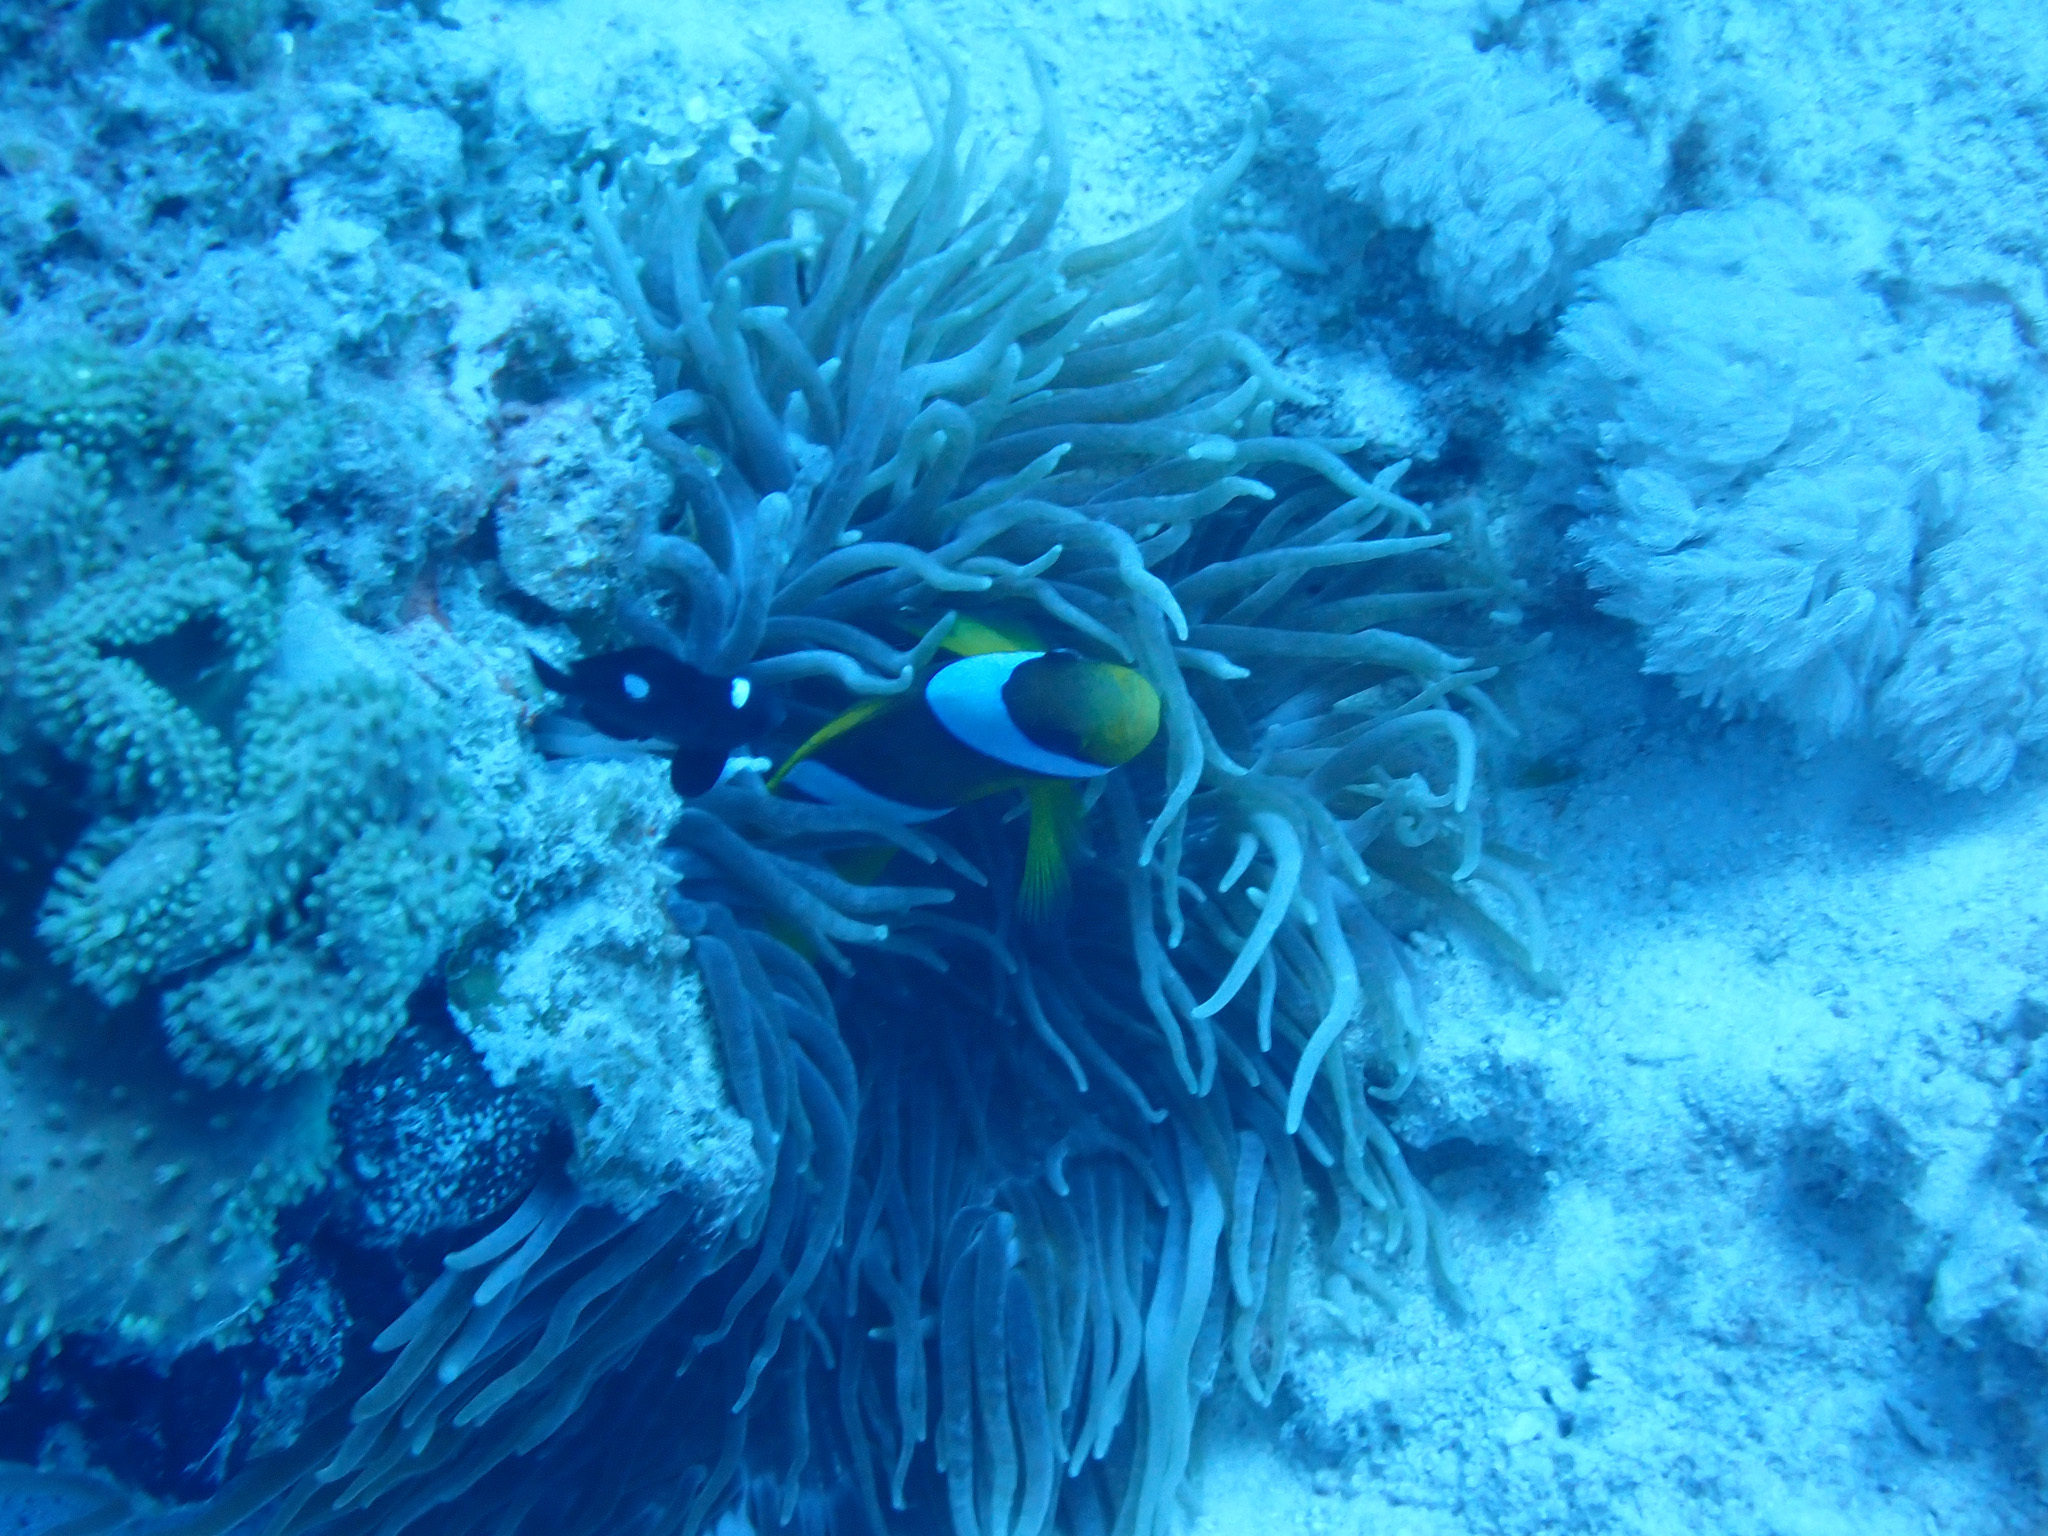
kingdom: Animalia
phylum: Cnidaria
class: Anthozoa
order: Actiniaria
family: Actiniidae
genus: Entacmaea
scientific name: Entacmaea quadricolor
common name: Bulb tentacle sea anemone
